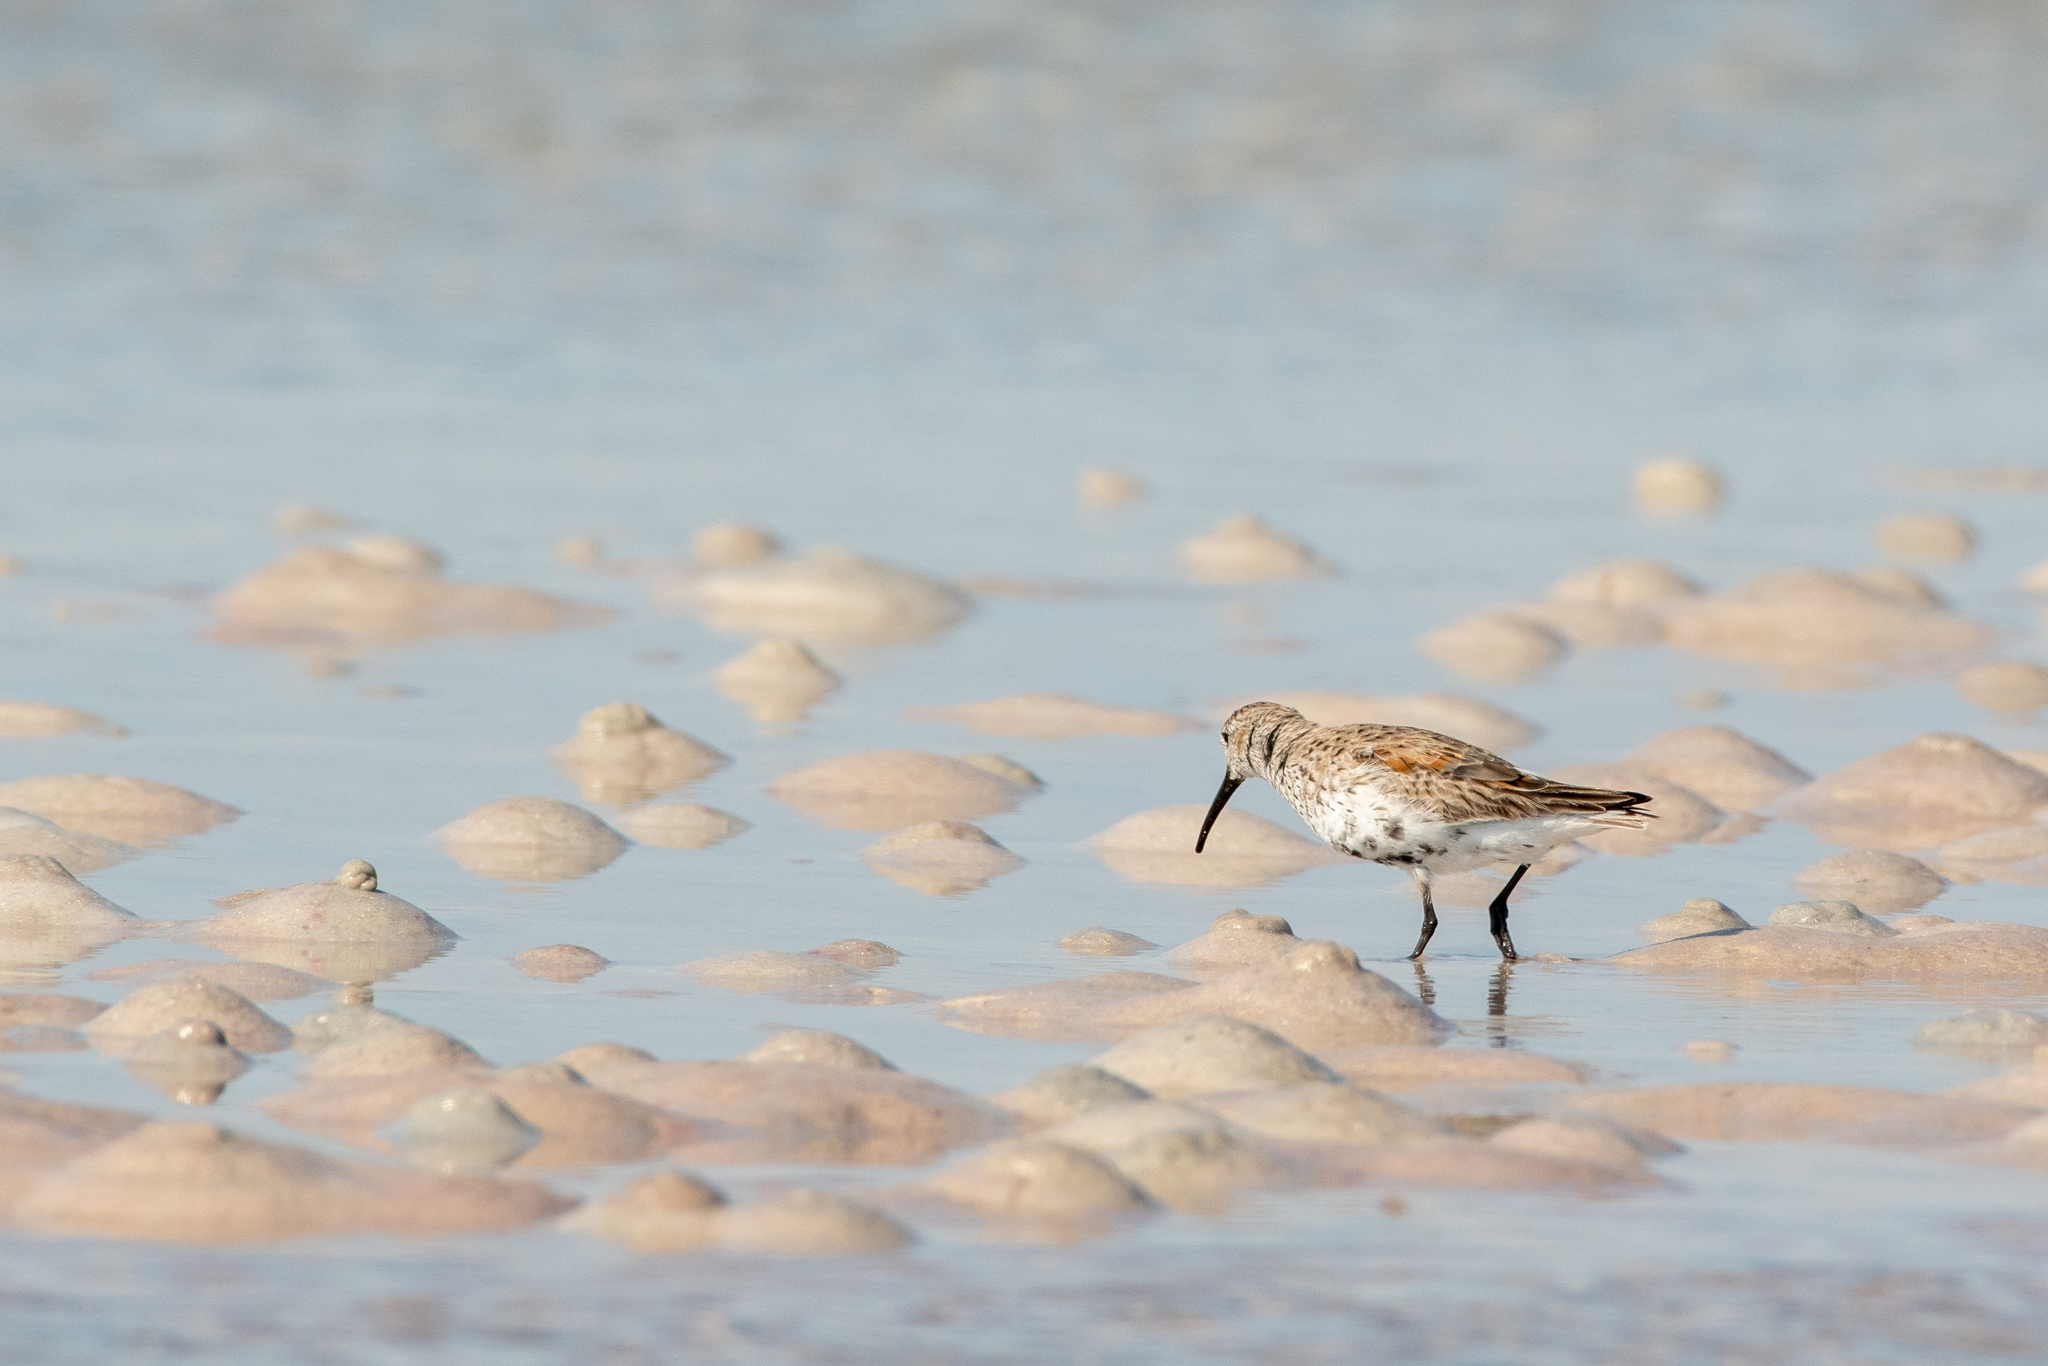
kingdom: Animalia
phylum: Chordata
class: Aves
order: Charadriiformes
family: Scolopacidae
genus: Calidris
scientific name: Calidris alpina
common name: Dunlin
